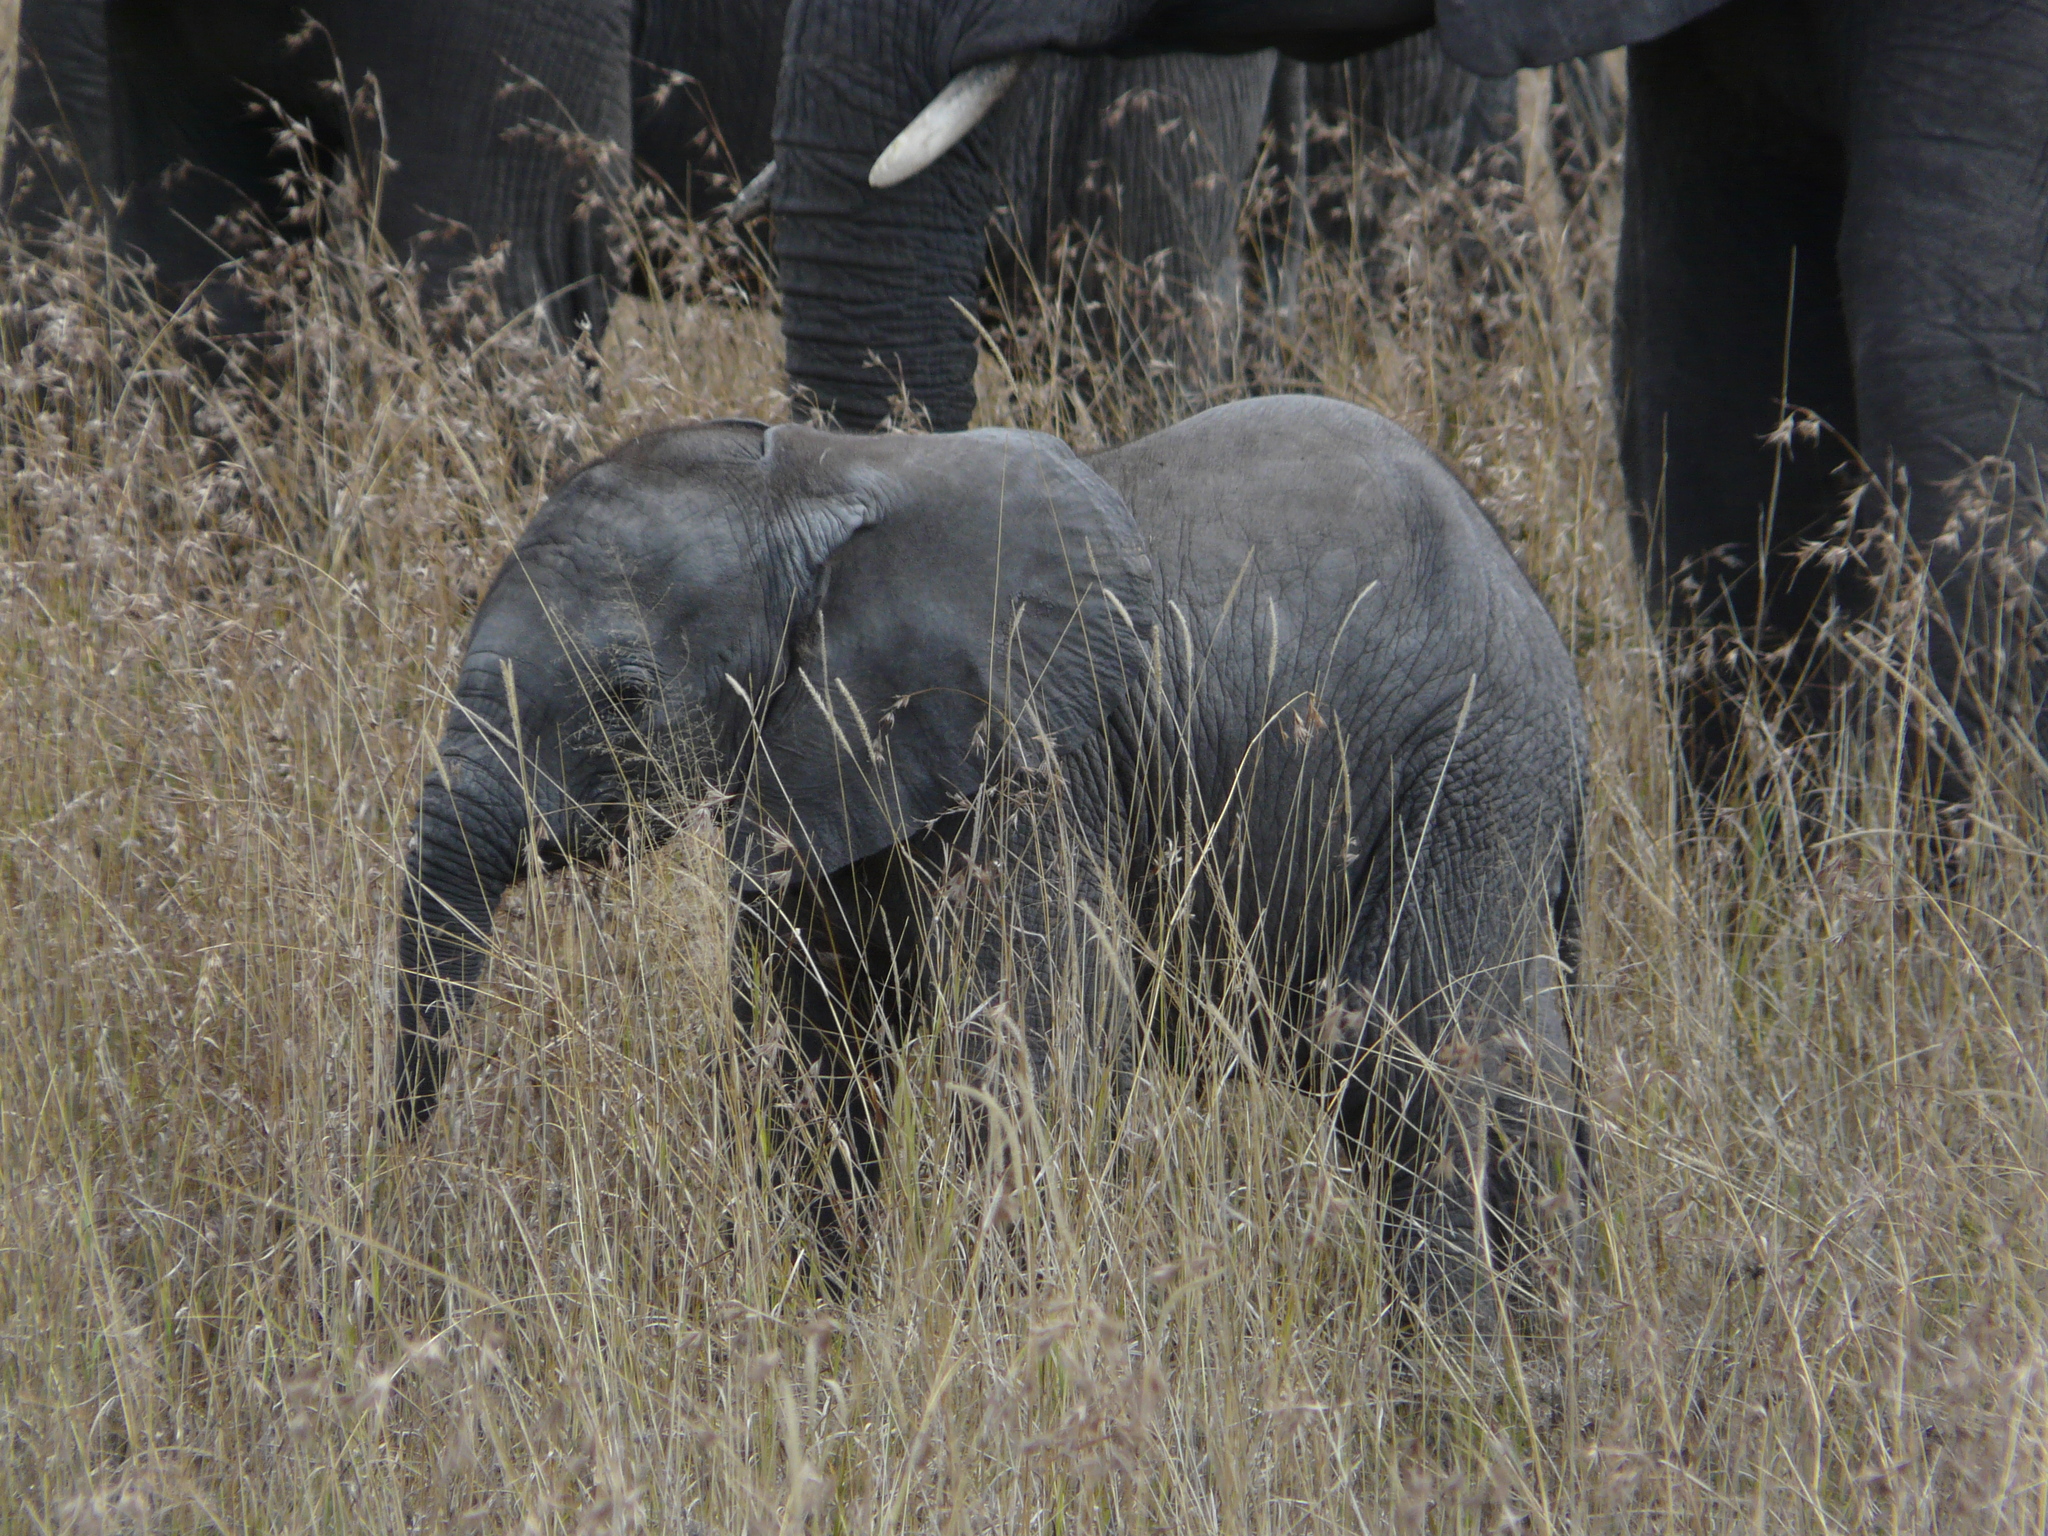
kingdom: Animalia
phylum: Chordata
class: Mammalia
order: Proboscidea
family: Elephantidae
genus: Loxodonta
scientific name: Loxodonta africana
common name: African elephant
